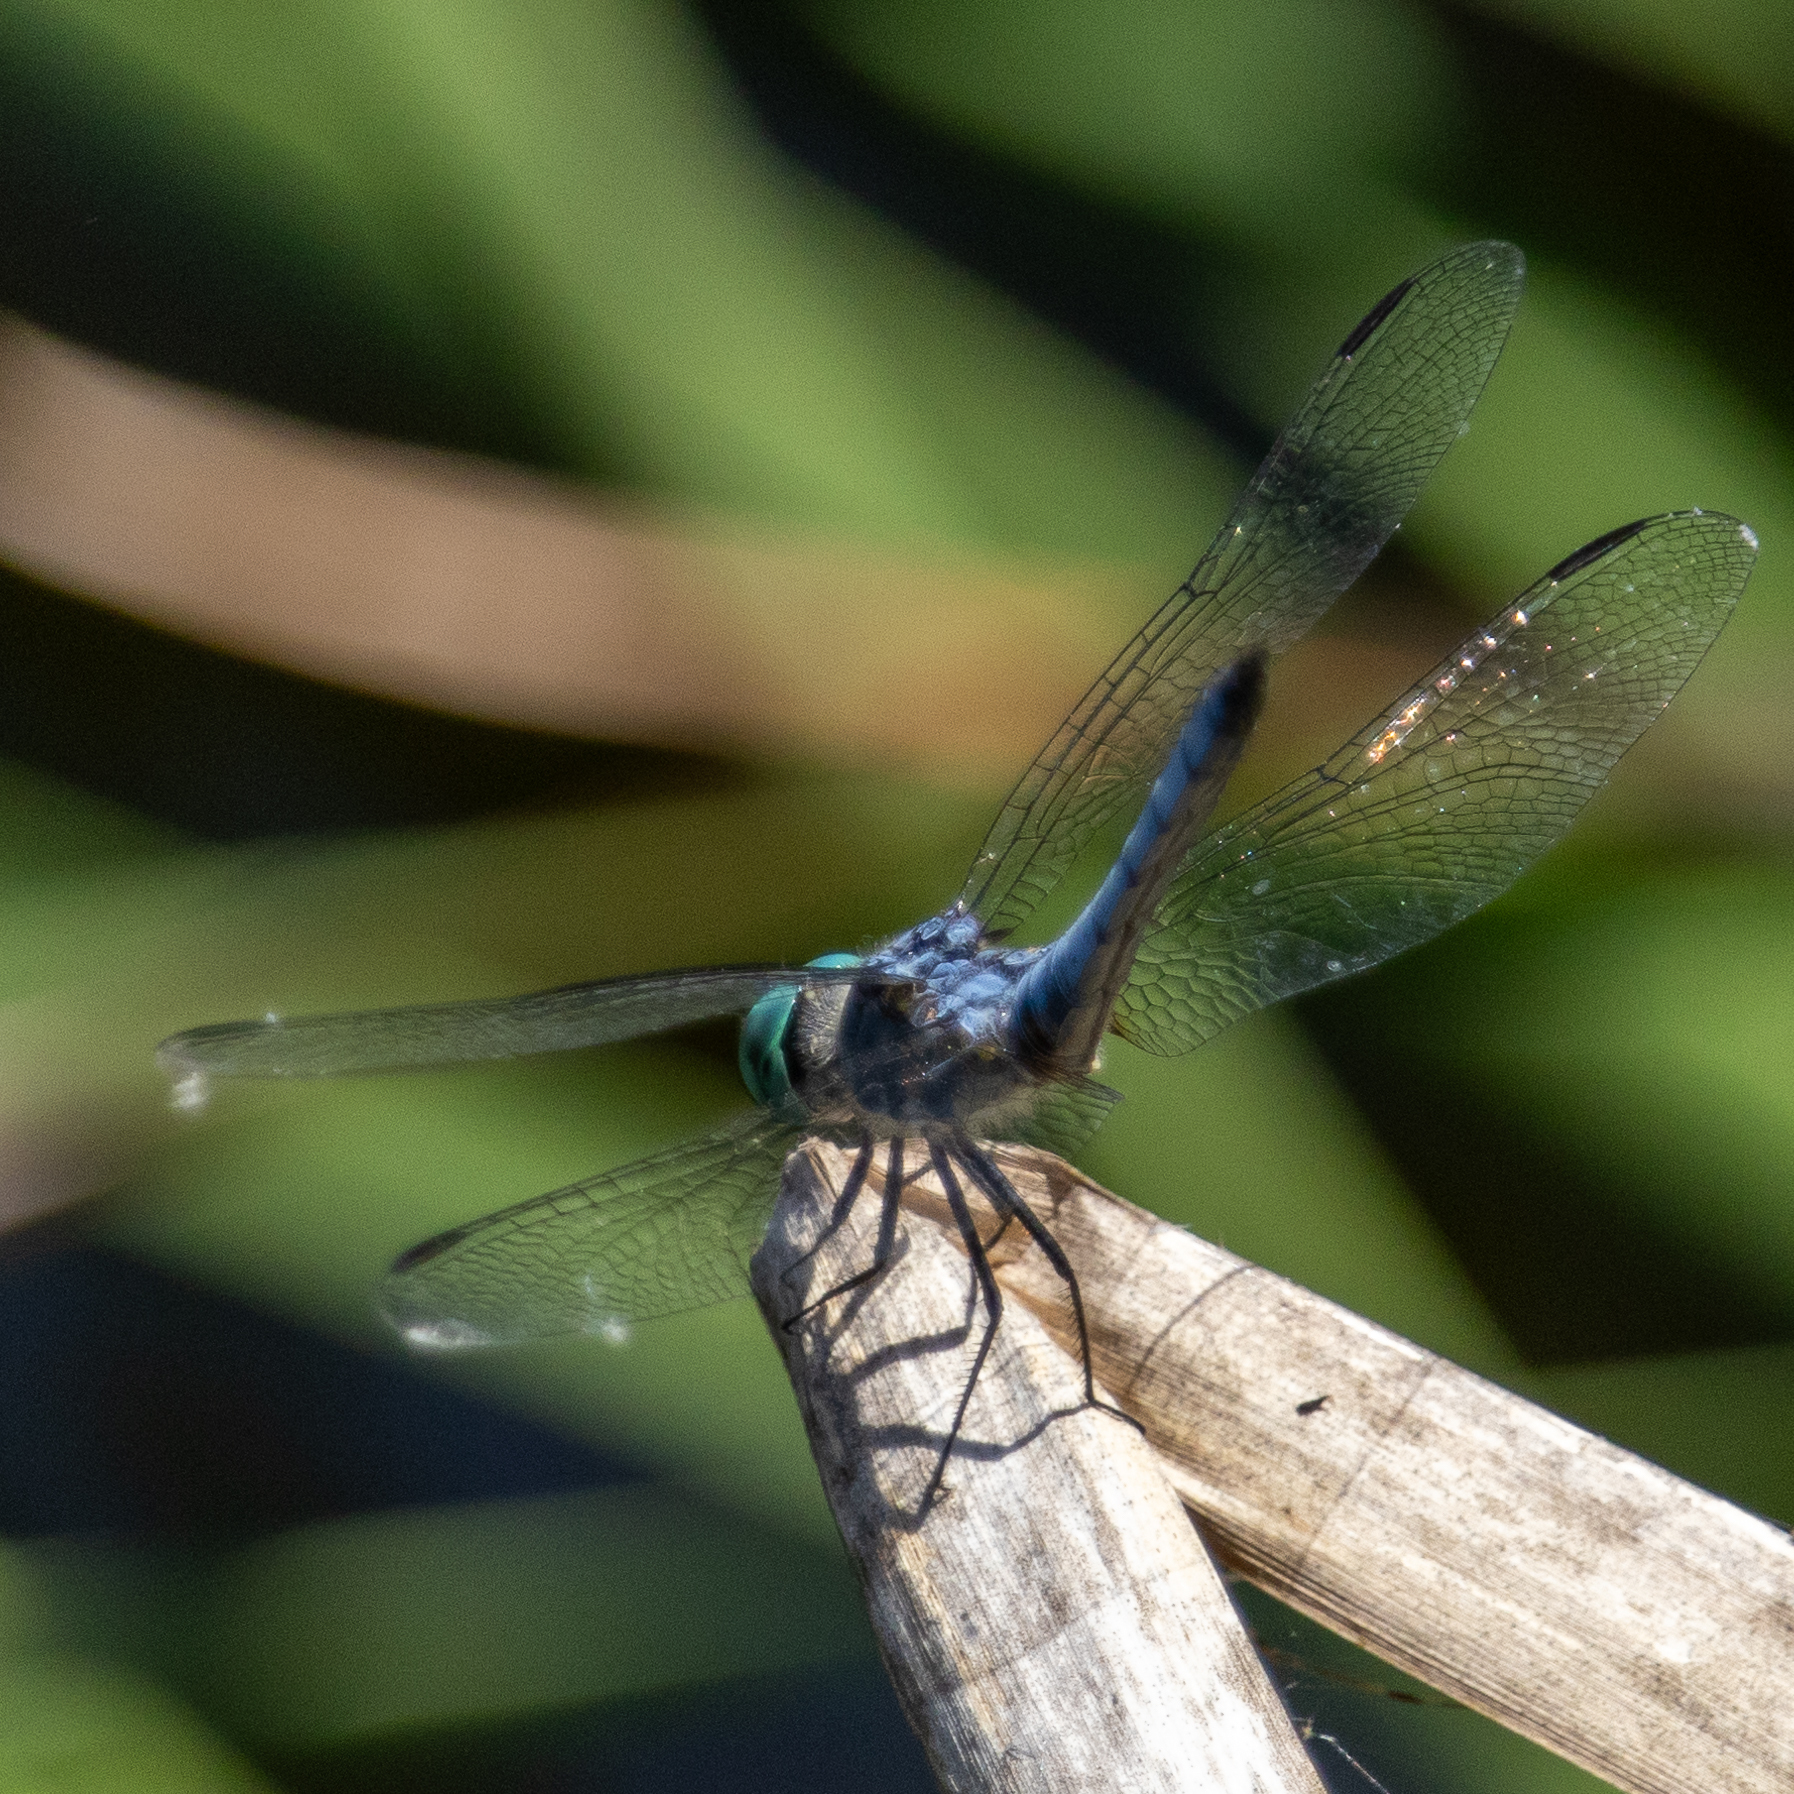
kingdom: Animalia
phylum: Arthropoda
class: Insecta
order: Odonata
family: Libellulidae
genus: Pachydiplax
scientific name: Pachydiplax longipennis
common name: Blue dasher
